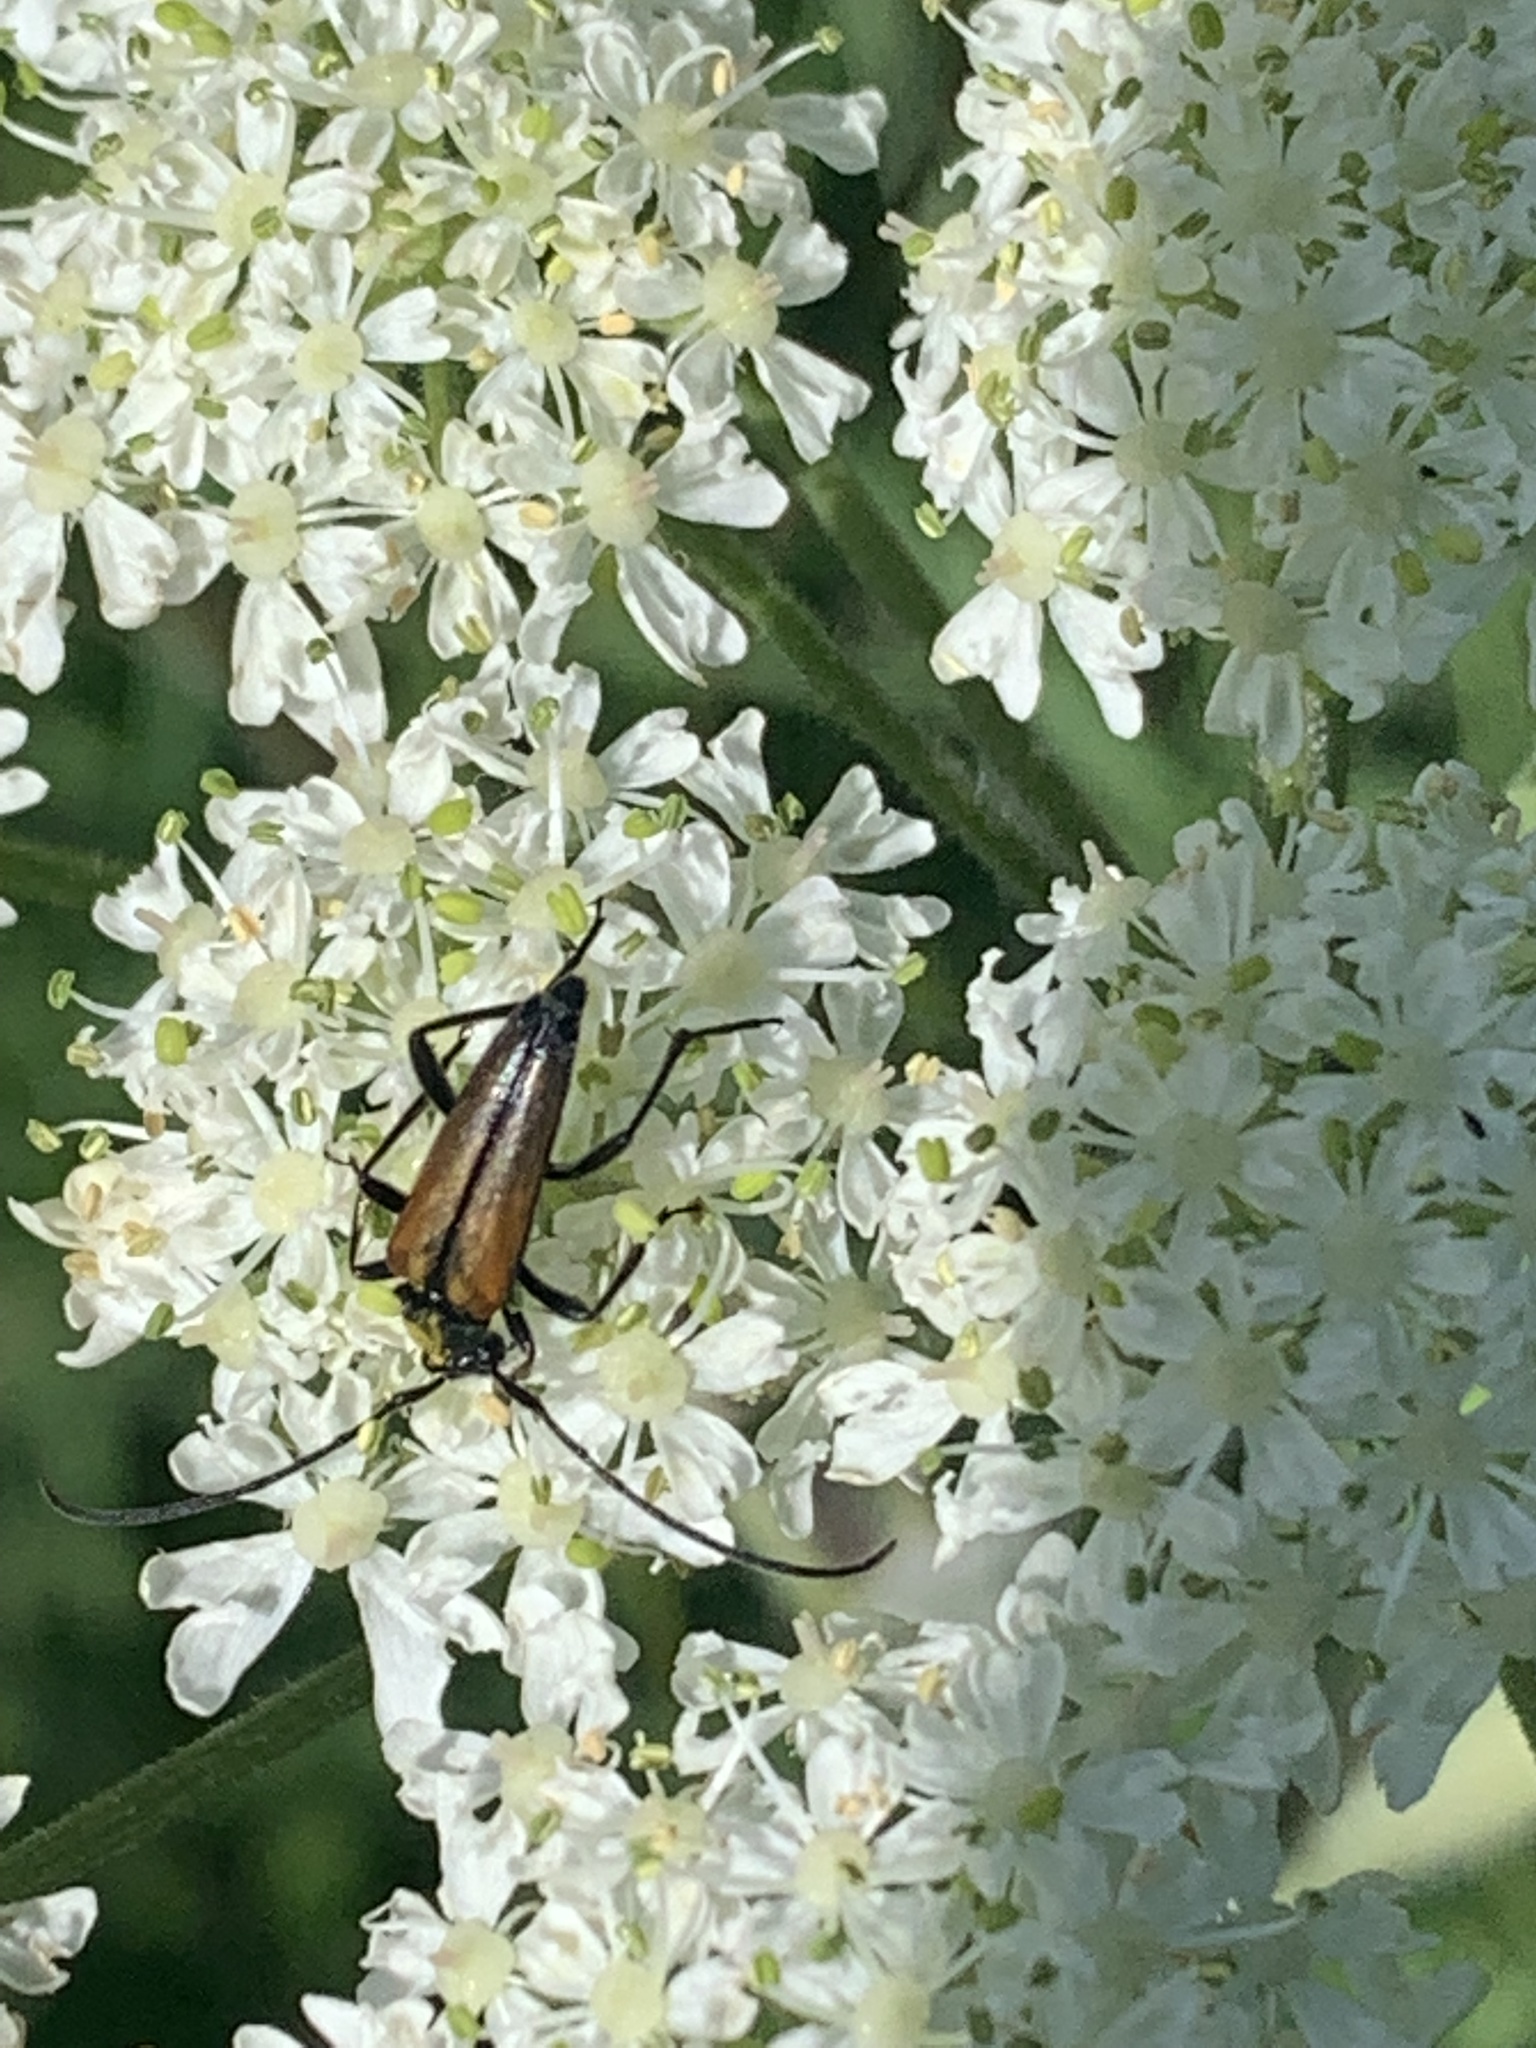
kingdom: Animalia
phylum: Arthropoda
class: Insecta
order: Coleoptera
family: Cerambycidae
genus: Stenurella
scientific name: Stenurella melanura
